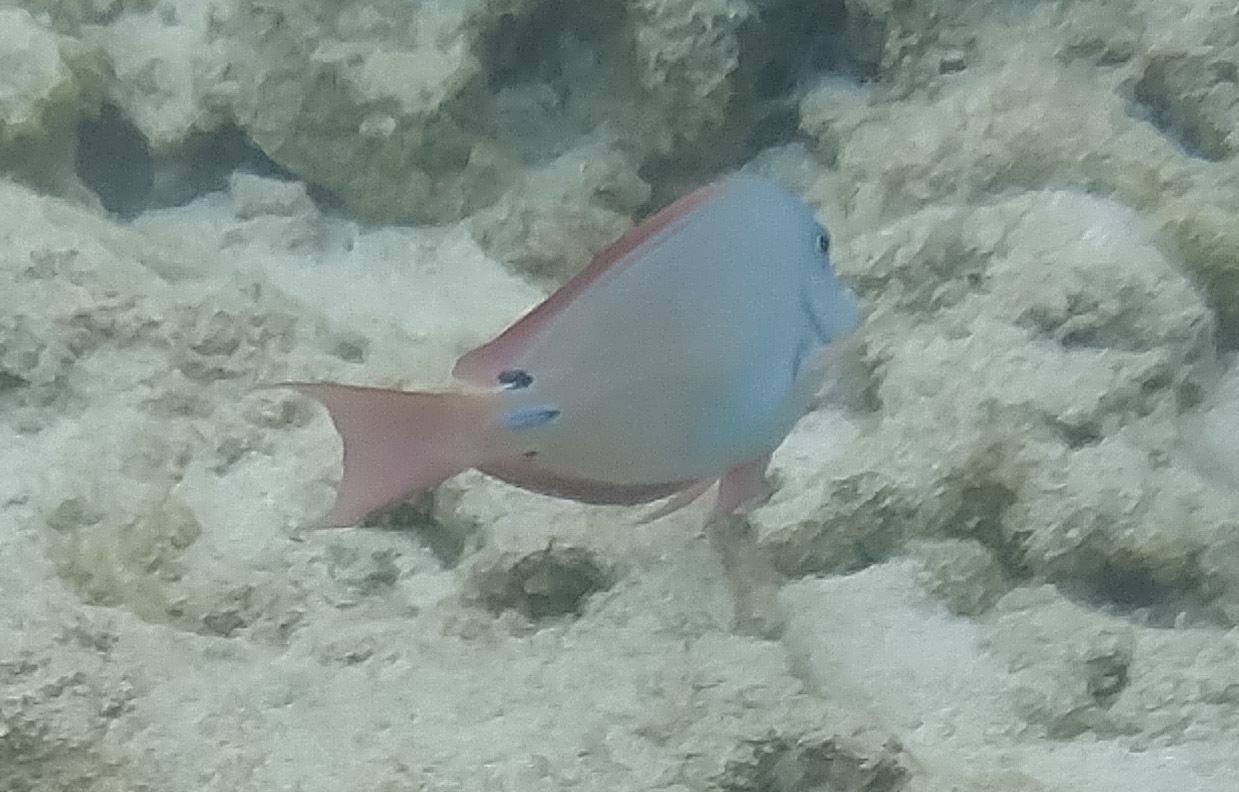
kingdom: Animalia
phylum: Chordata
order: Perciformes
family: Acanthuridae
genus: Acanthurus
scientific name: Acanthurus nigrofuscus
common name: Blackspot surgeonfish
